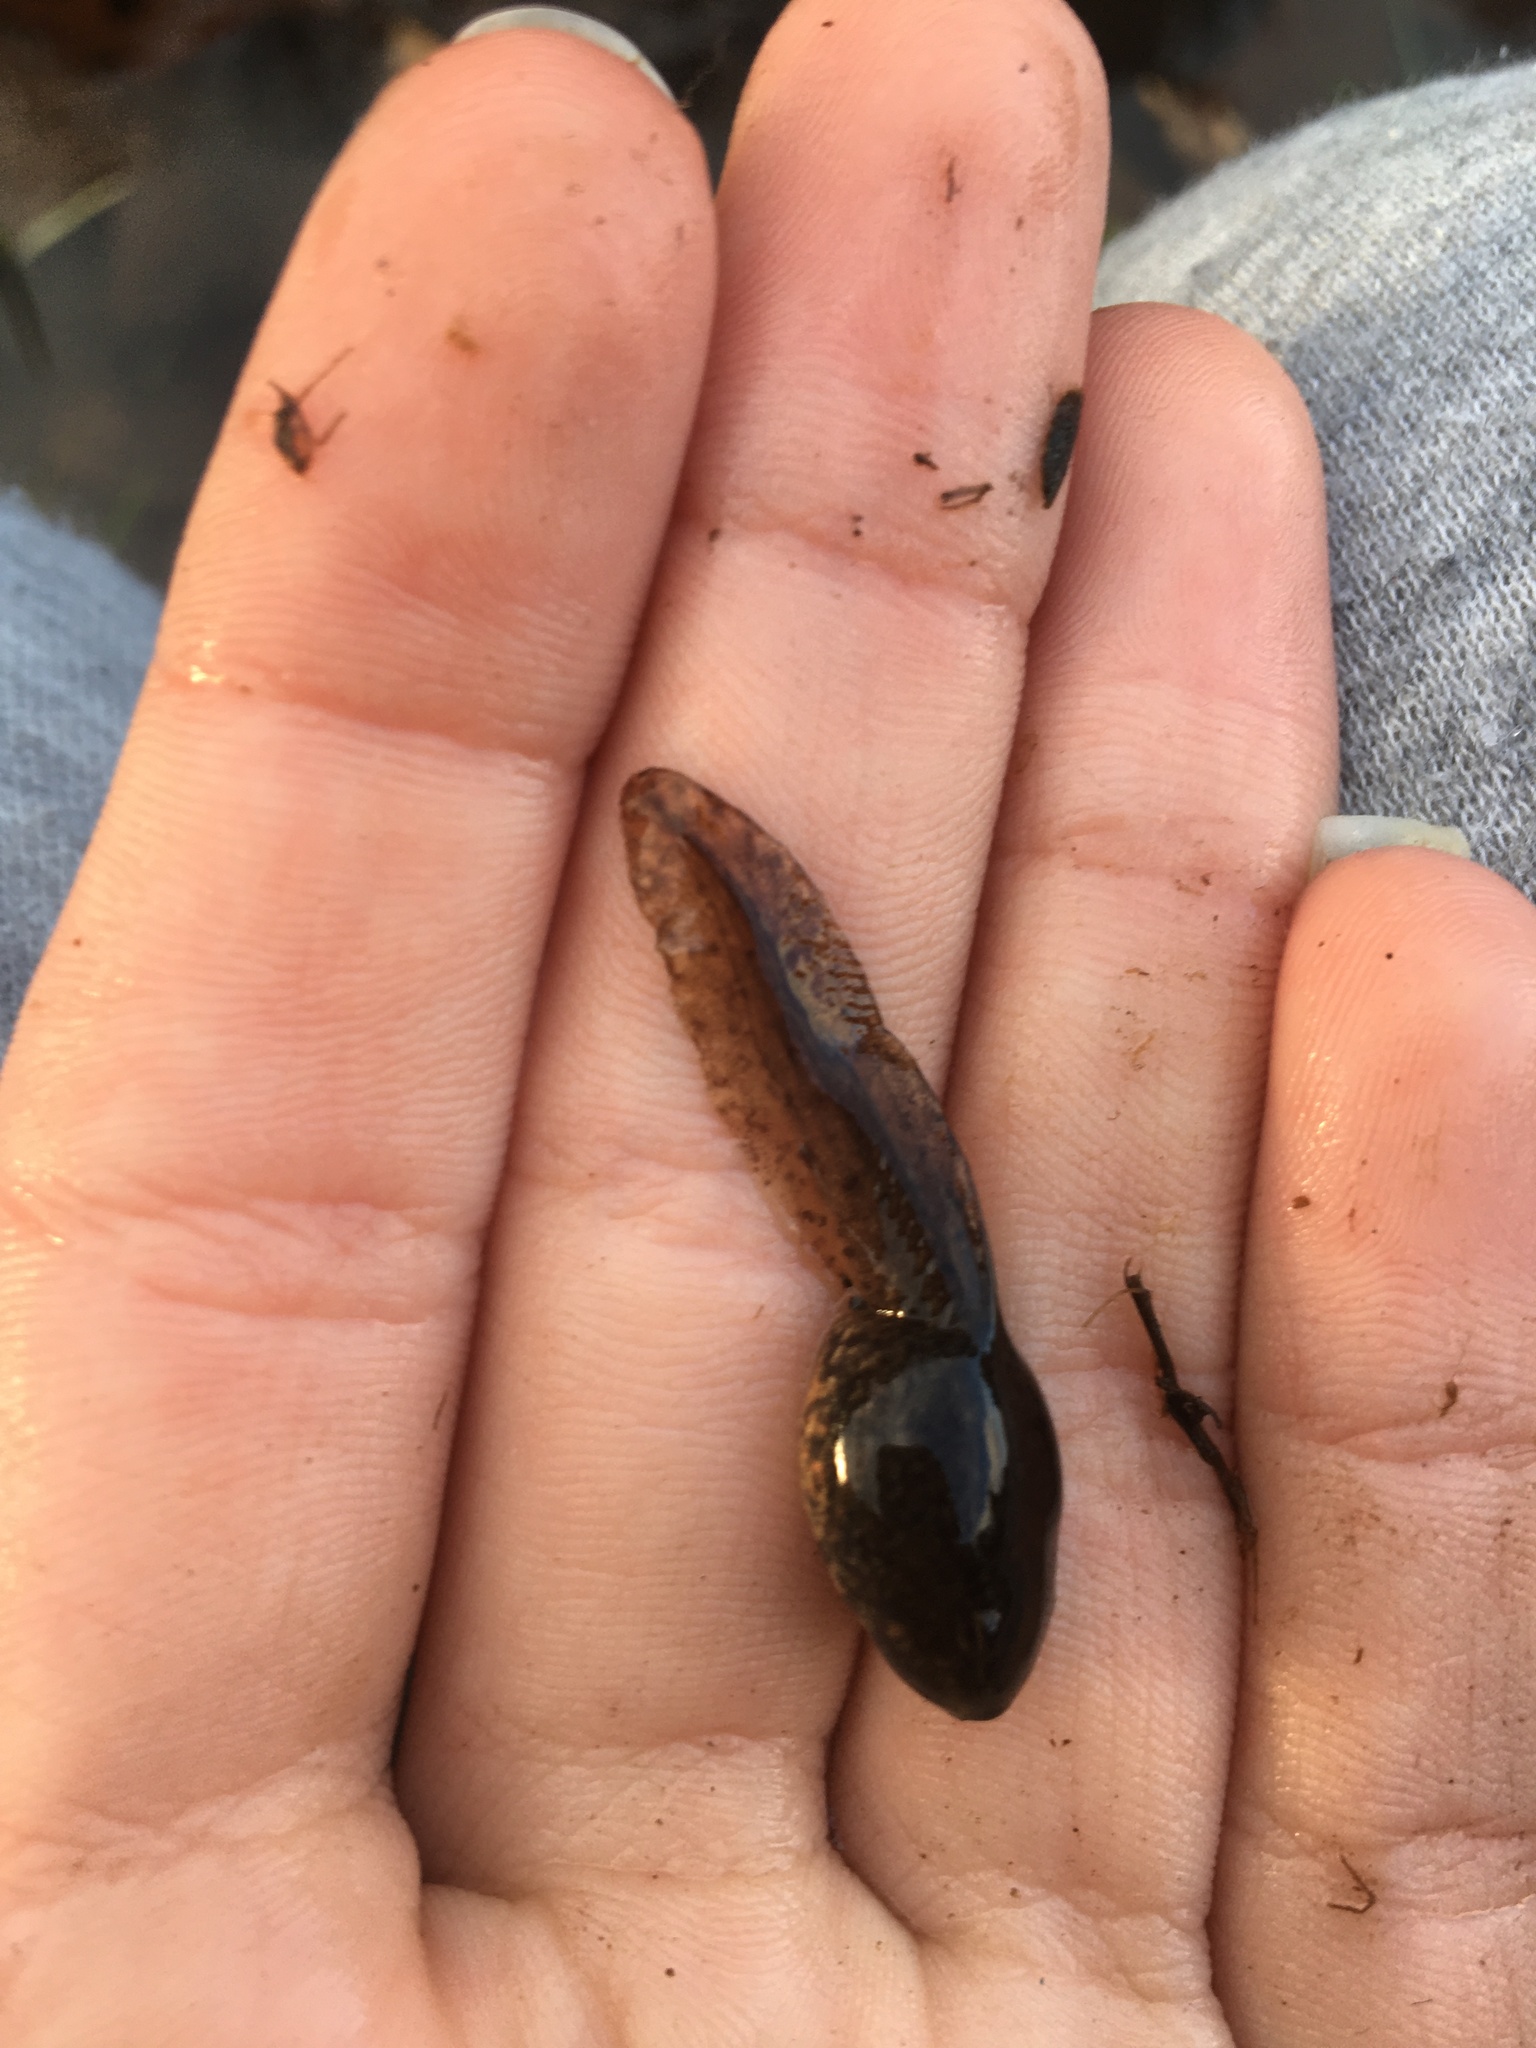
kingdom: Animalia
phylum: Chordata
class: Amphibia
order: Anura
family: Ranidae
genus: Lithobates
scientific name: Lithobates clamitans
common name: Green frog
